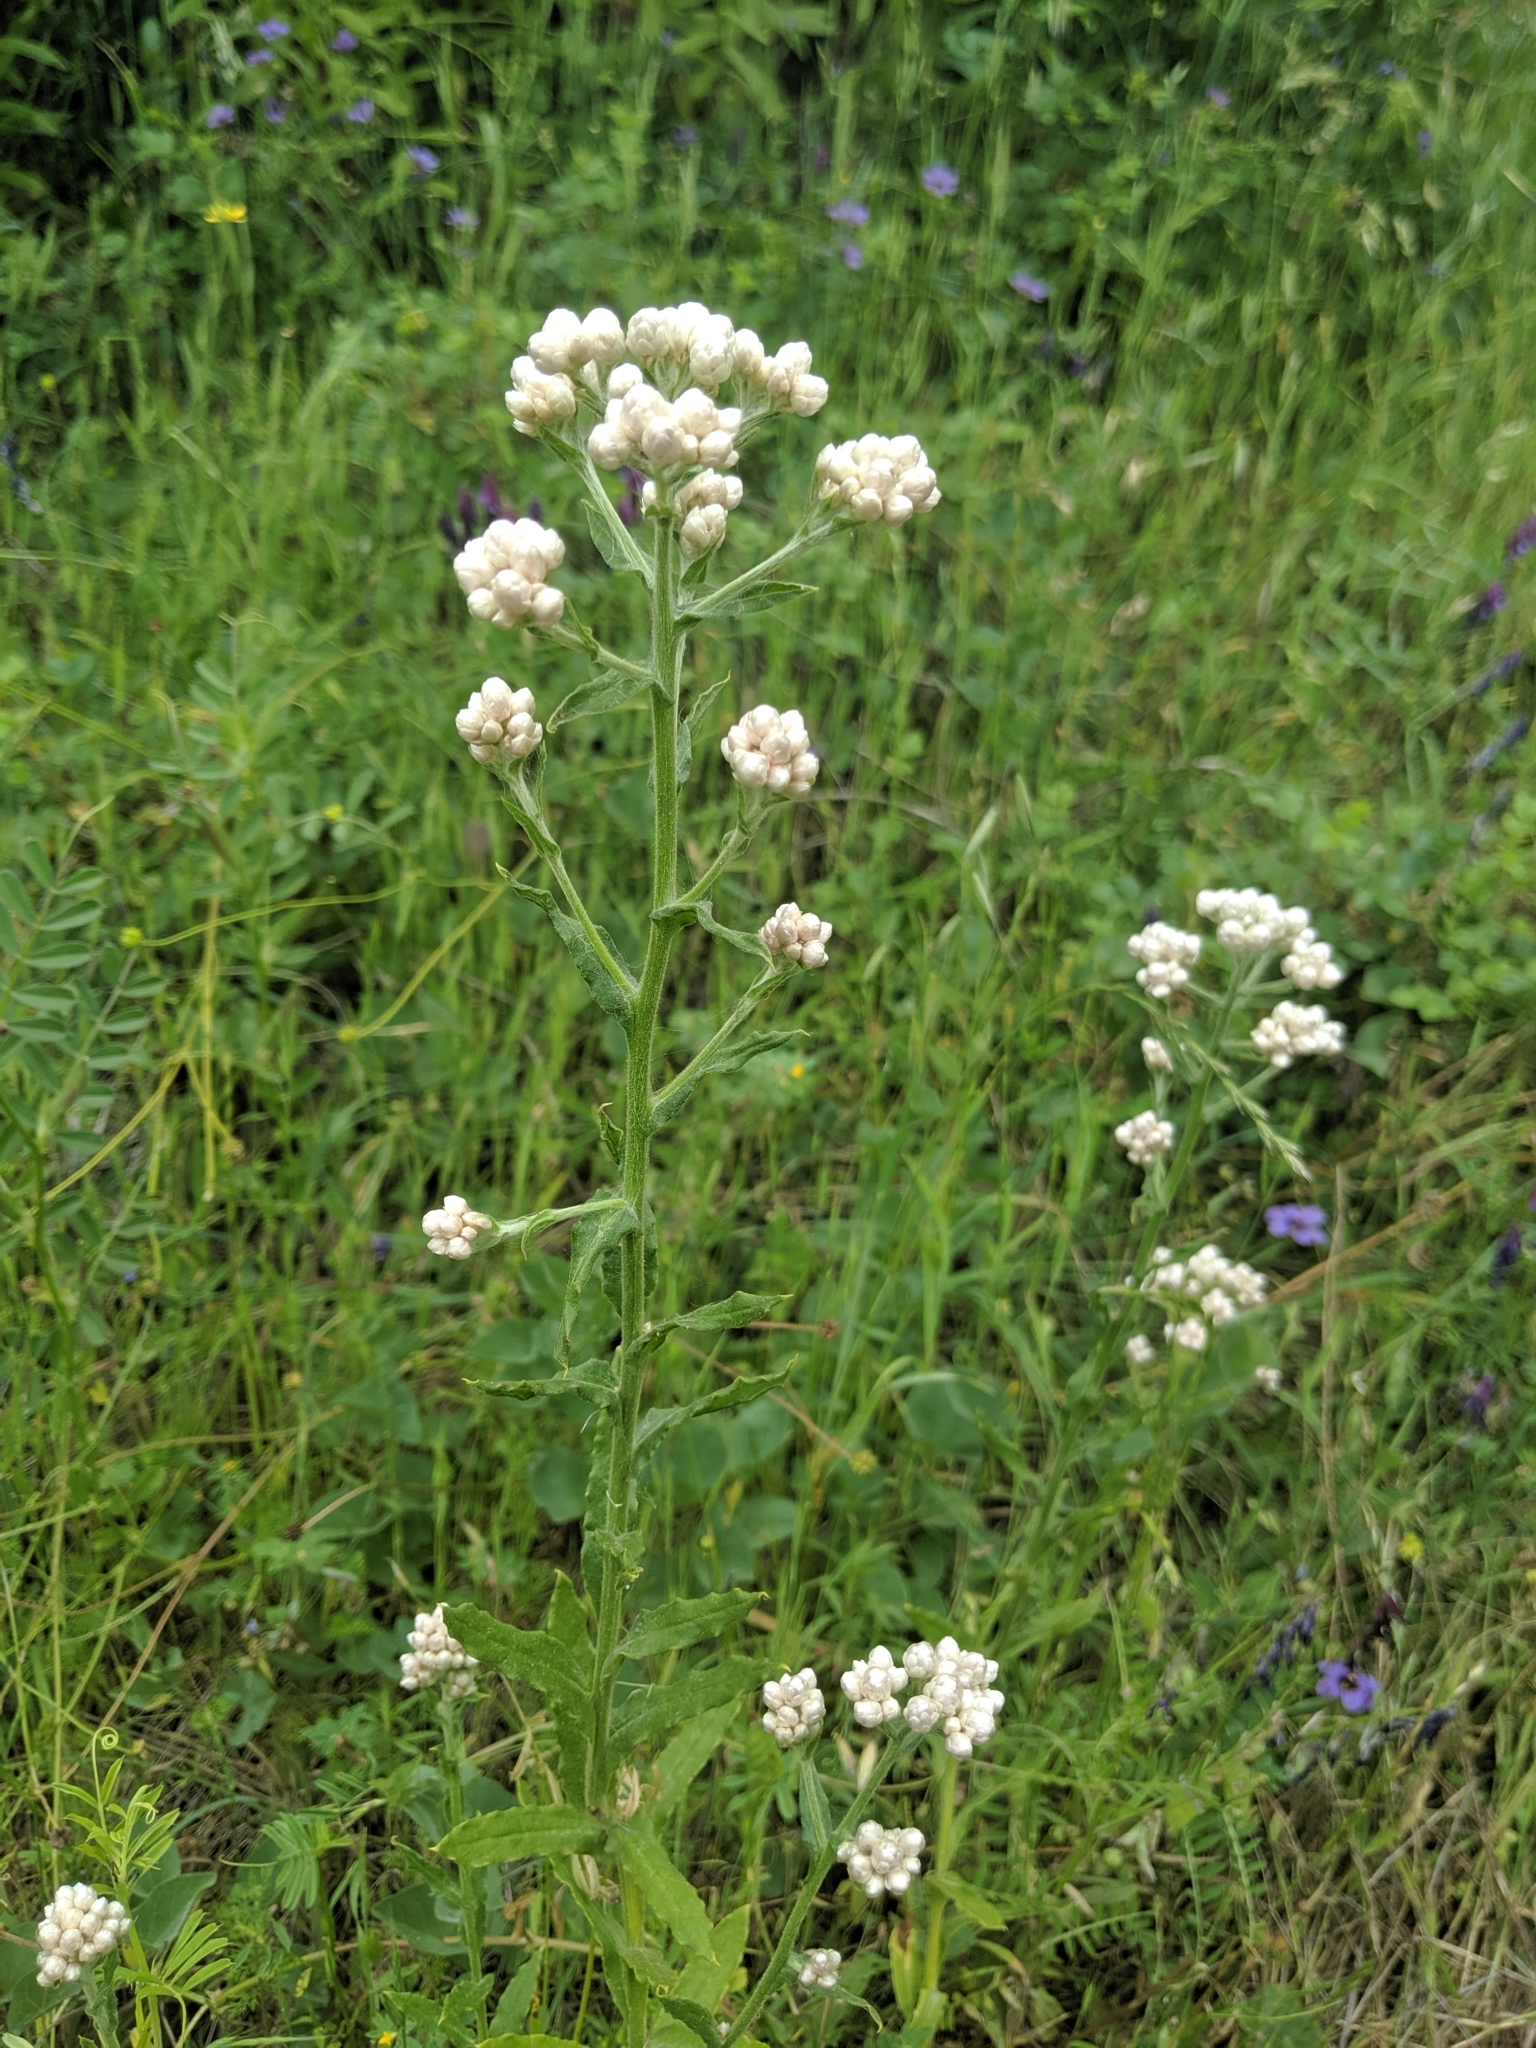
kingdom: Plantae
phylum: Tracheophyta
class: Magnoliopsida
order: Asterales
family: Asteraceae
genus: Pseudognaphalium
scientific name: Pseudognaphalium californicum
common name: California rabbit-tobacco
